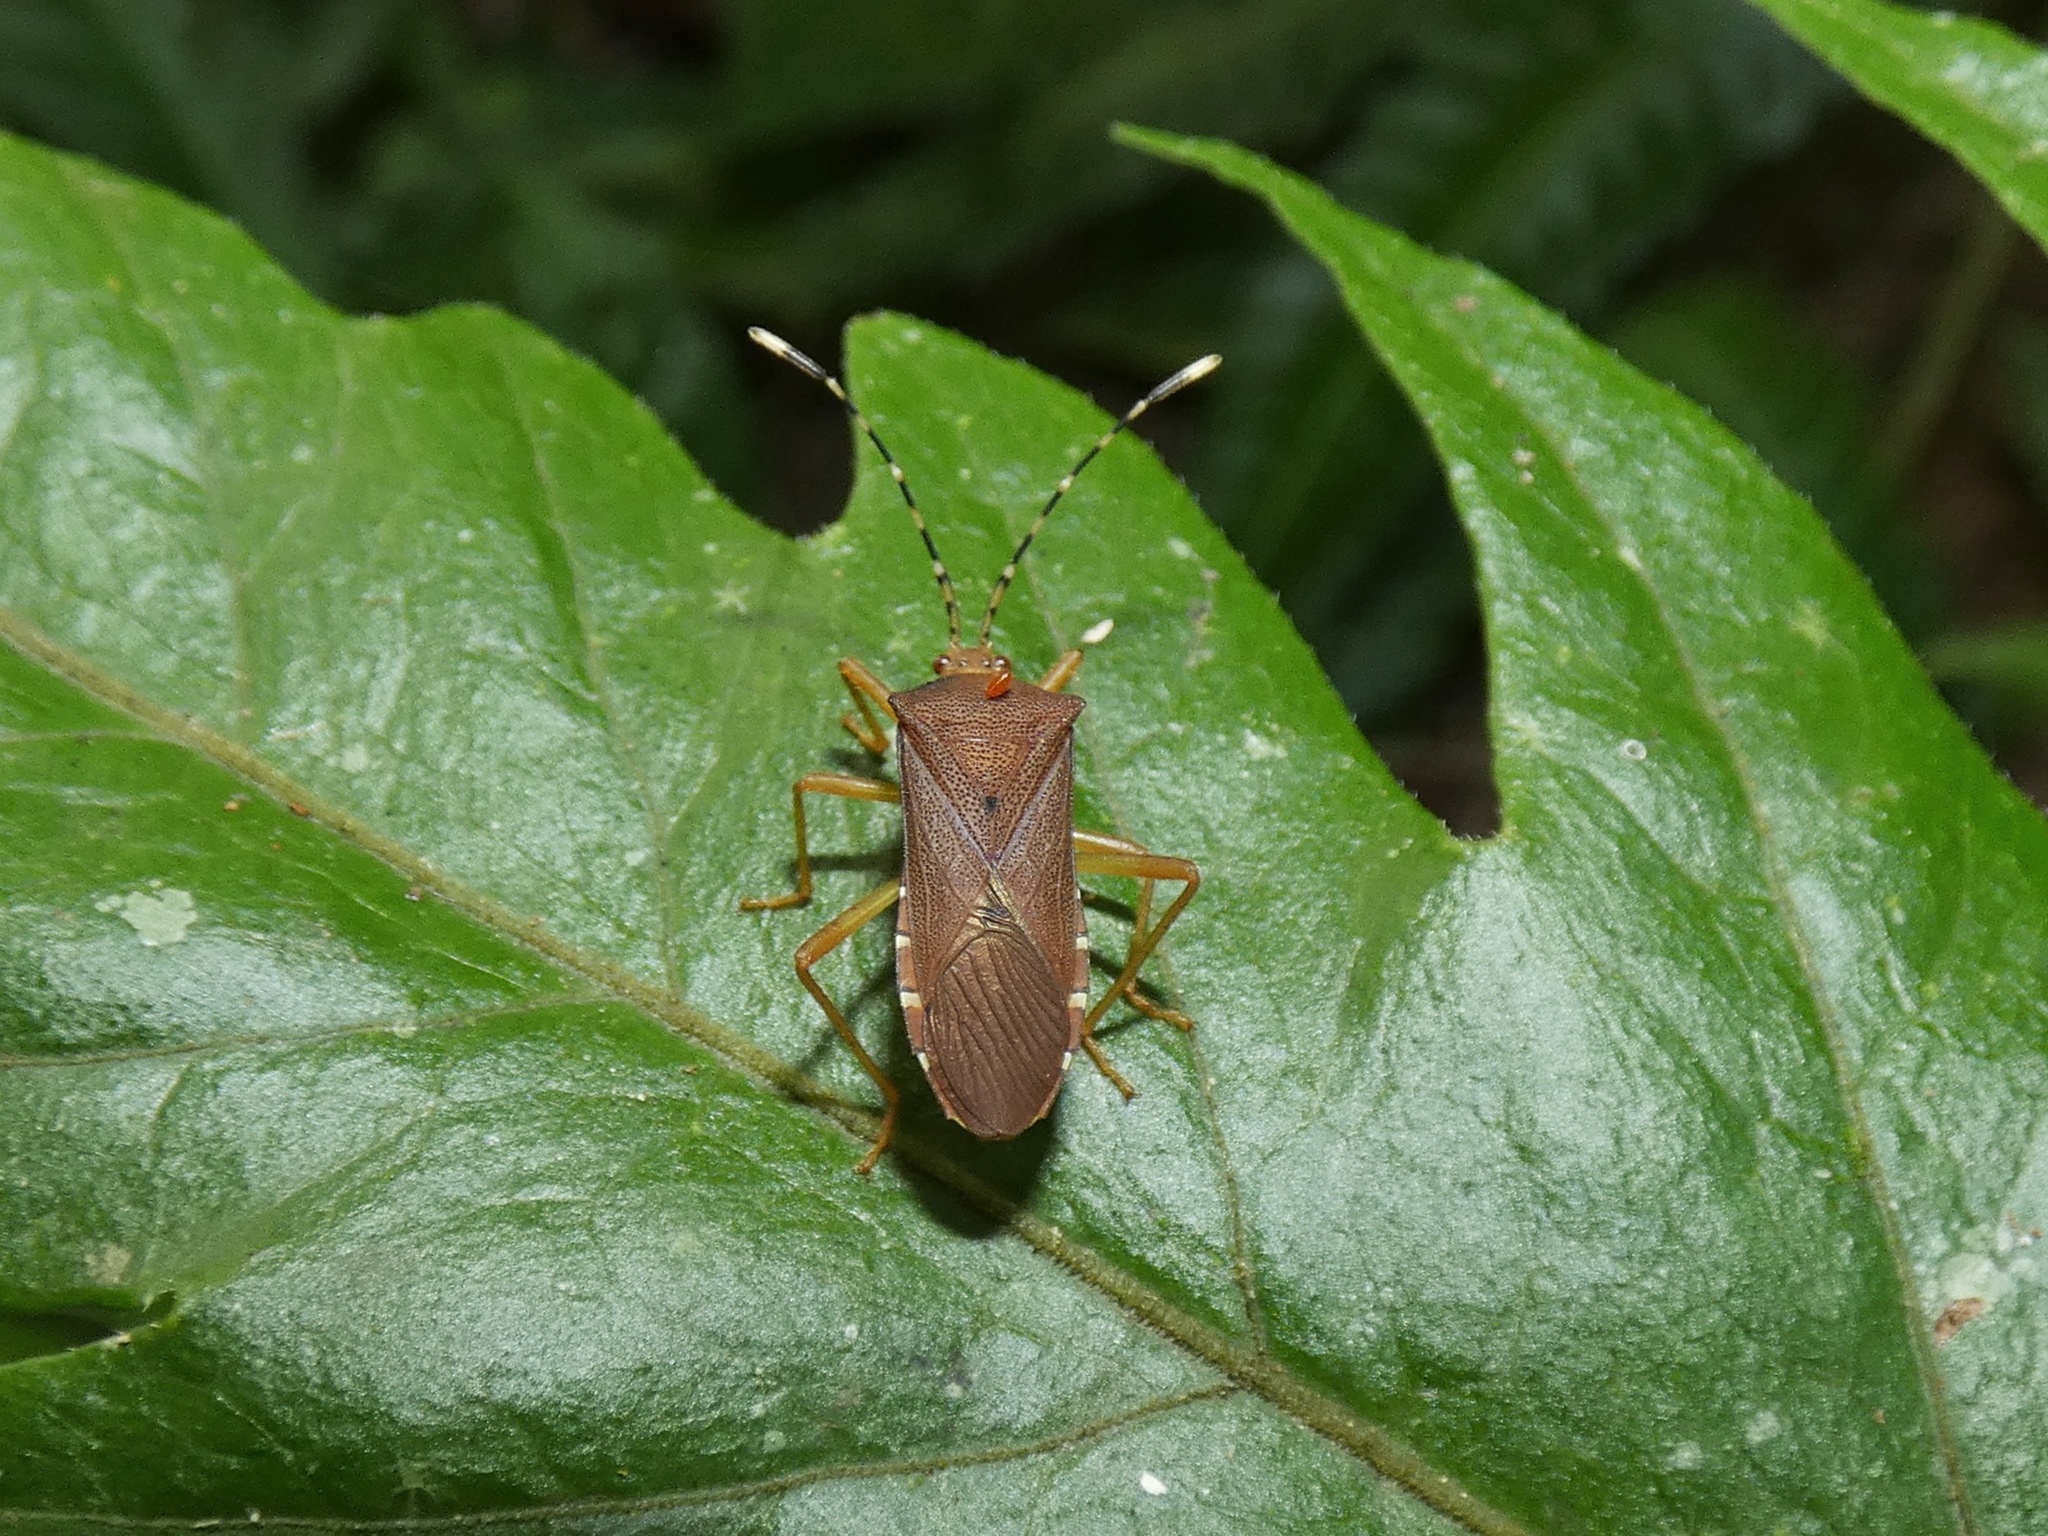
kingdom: Animalia
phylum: Arthropoda
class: Insecta
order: Hemiptera
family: Coreidae
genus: Anasa
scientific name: Anasa bellator
